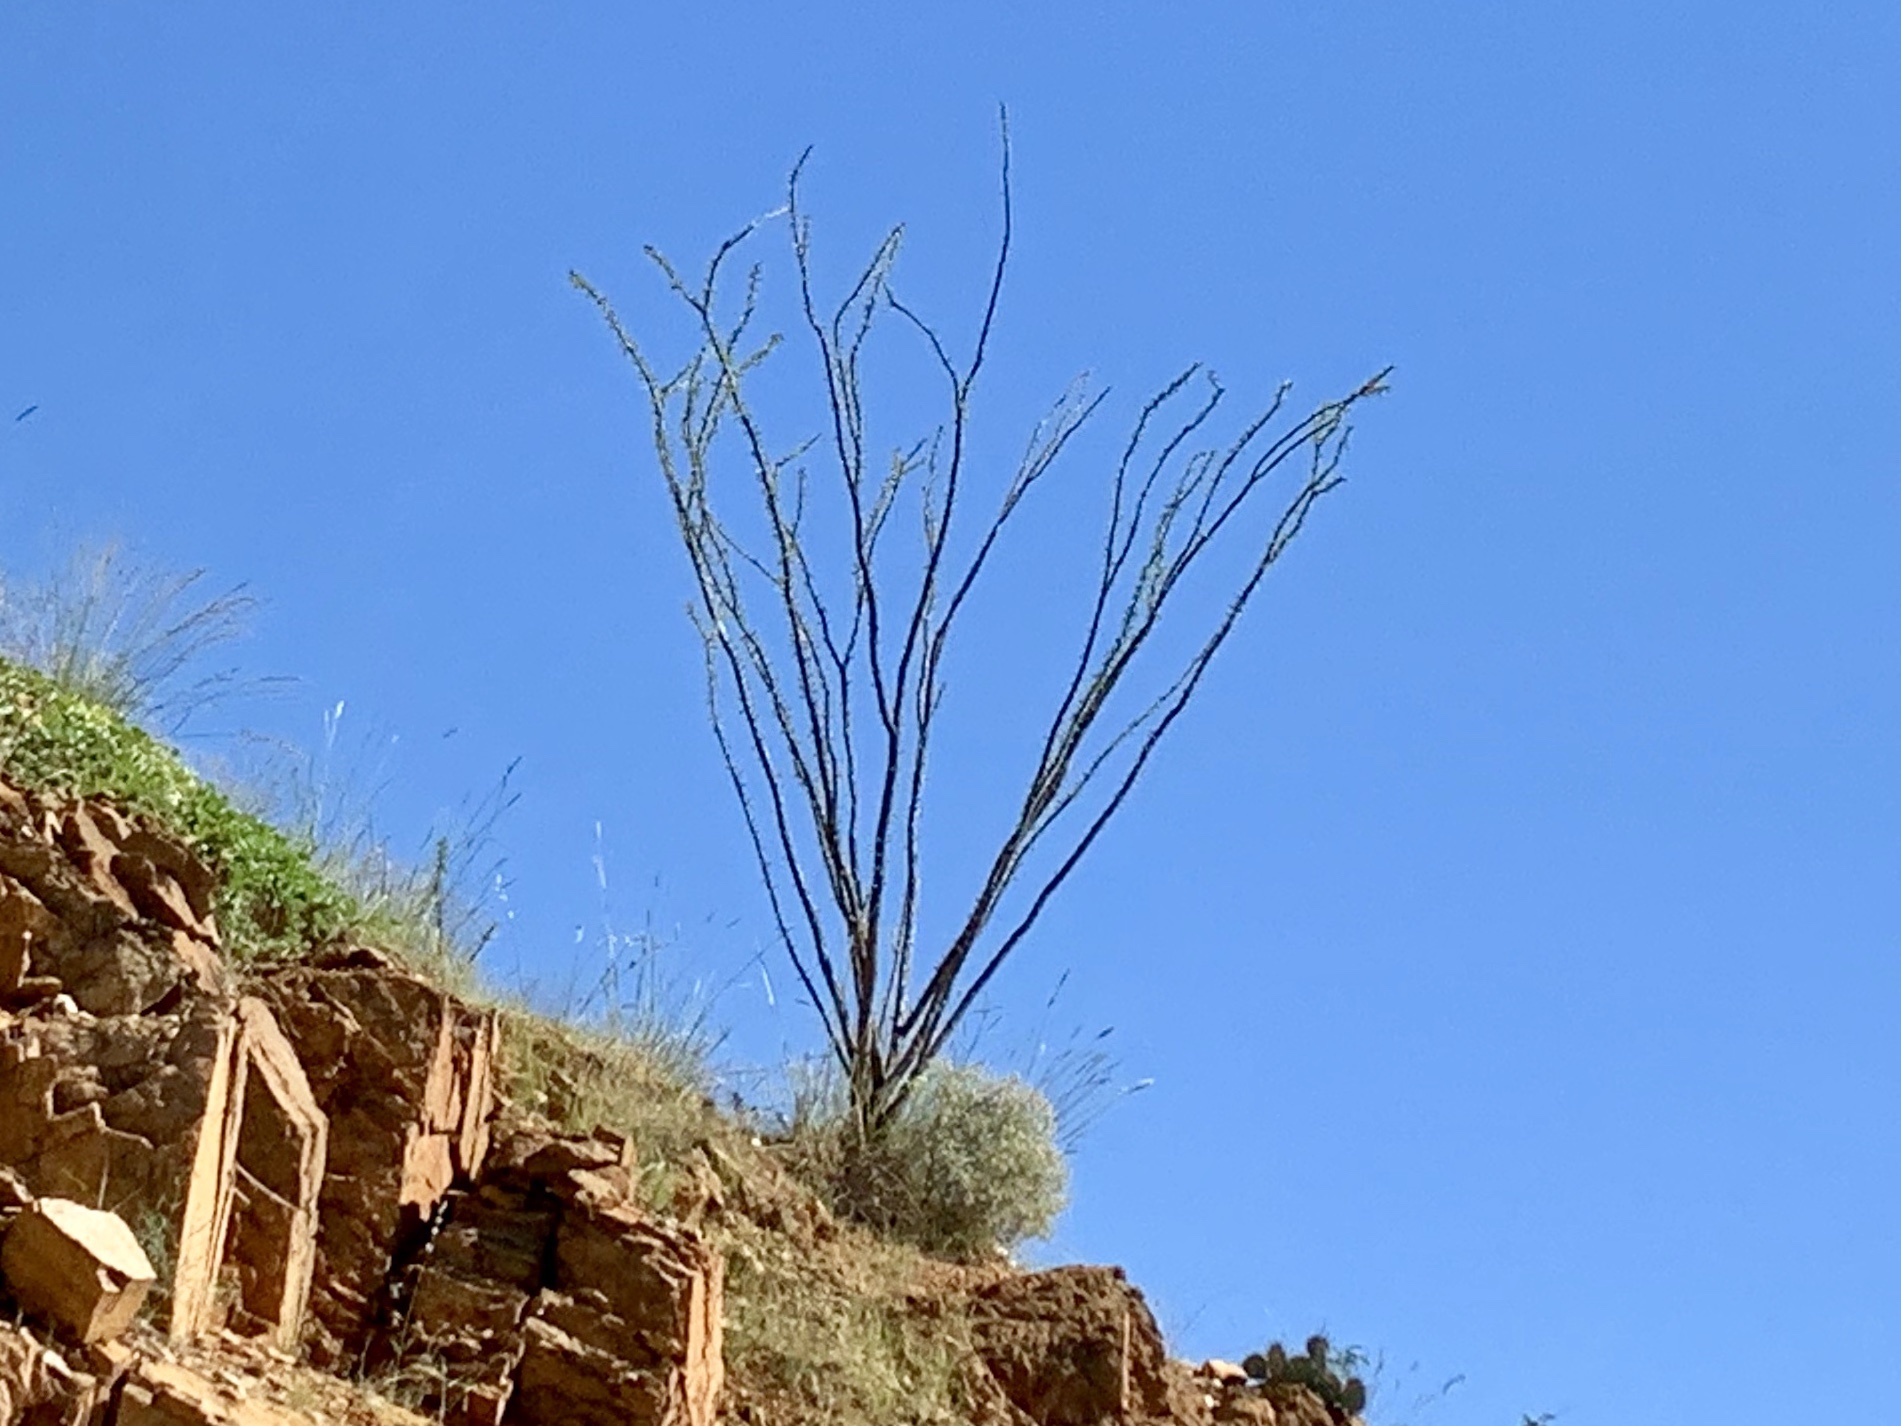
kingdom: Plantae
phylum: Tracheophyta
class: Magnoliopsida
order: Ericales
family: Fouquieriaceae
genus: Fouquieria
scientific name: Fouquieria splendens
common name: Vine-cactus
